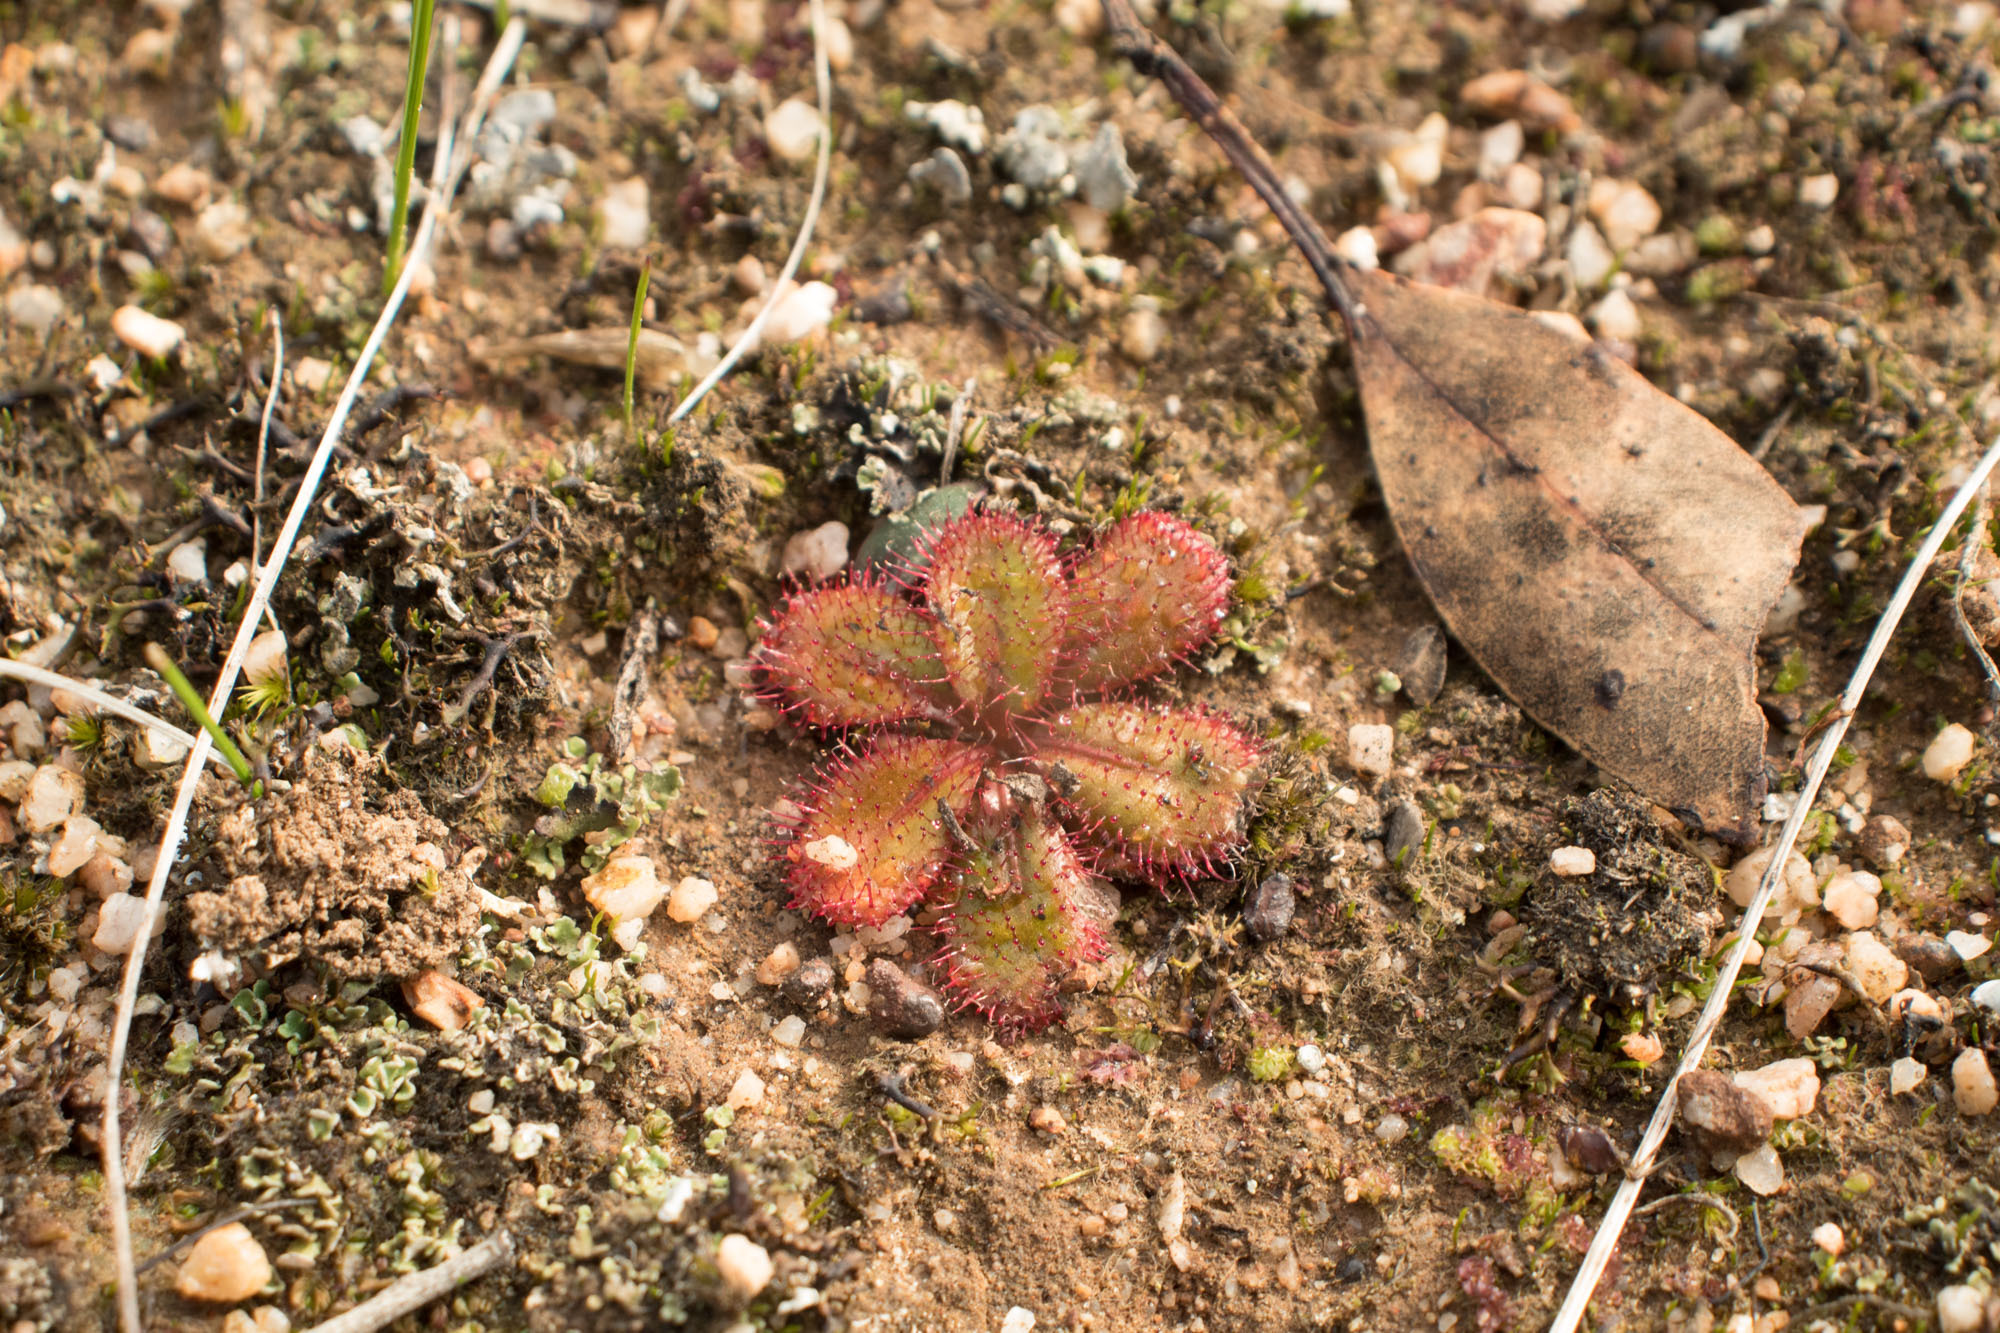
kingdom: Plantae
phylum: Tracheophyta
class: Magnoliopsida
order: Caryophyllales
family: Droseraceae
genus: Drosera
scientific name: Drosera tubaestylis
